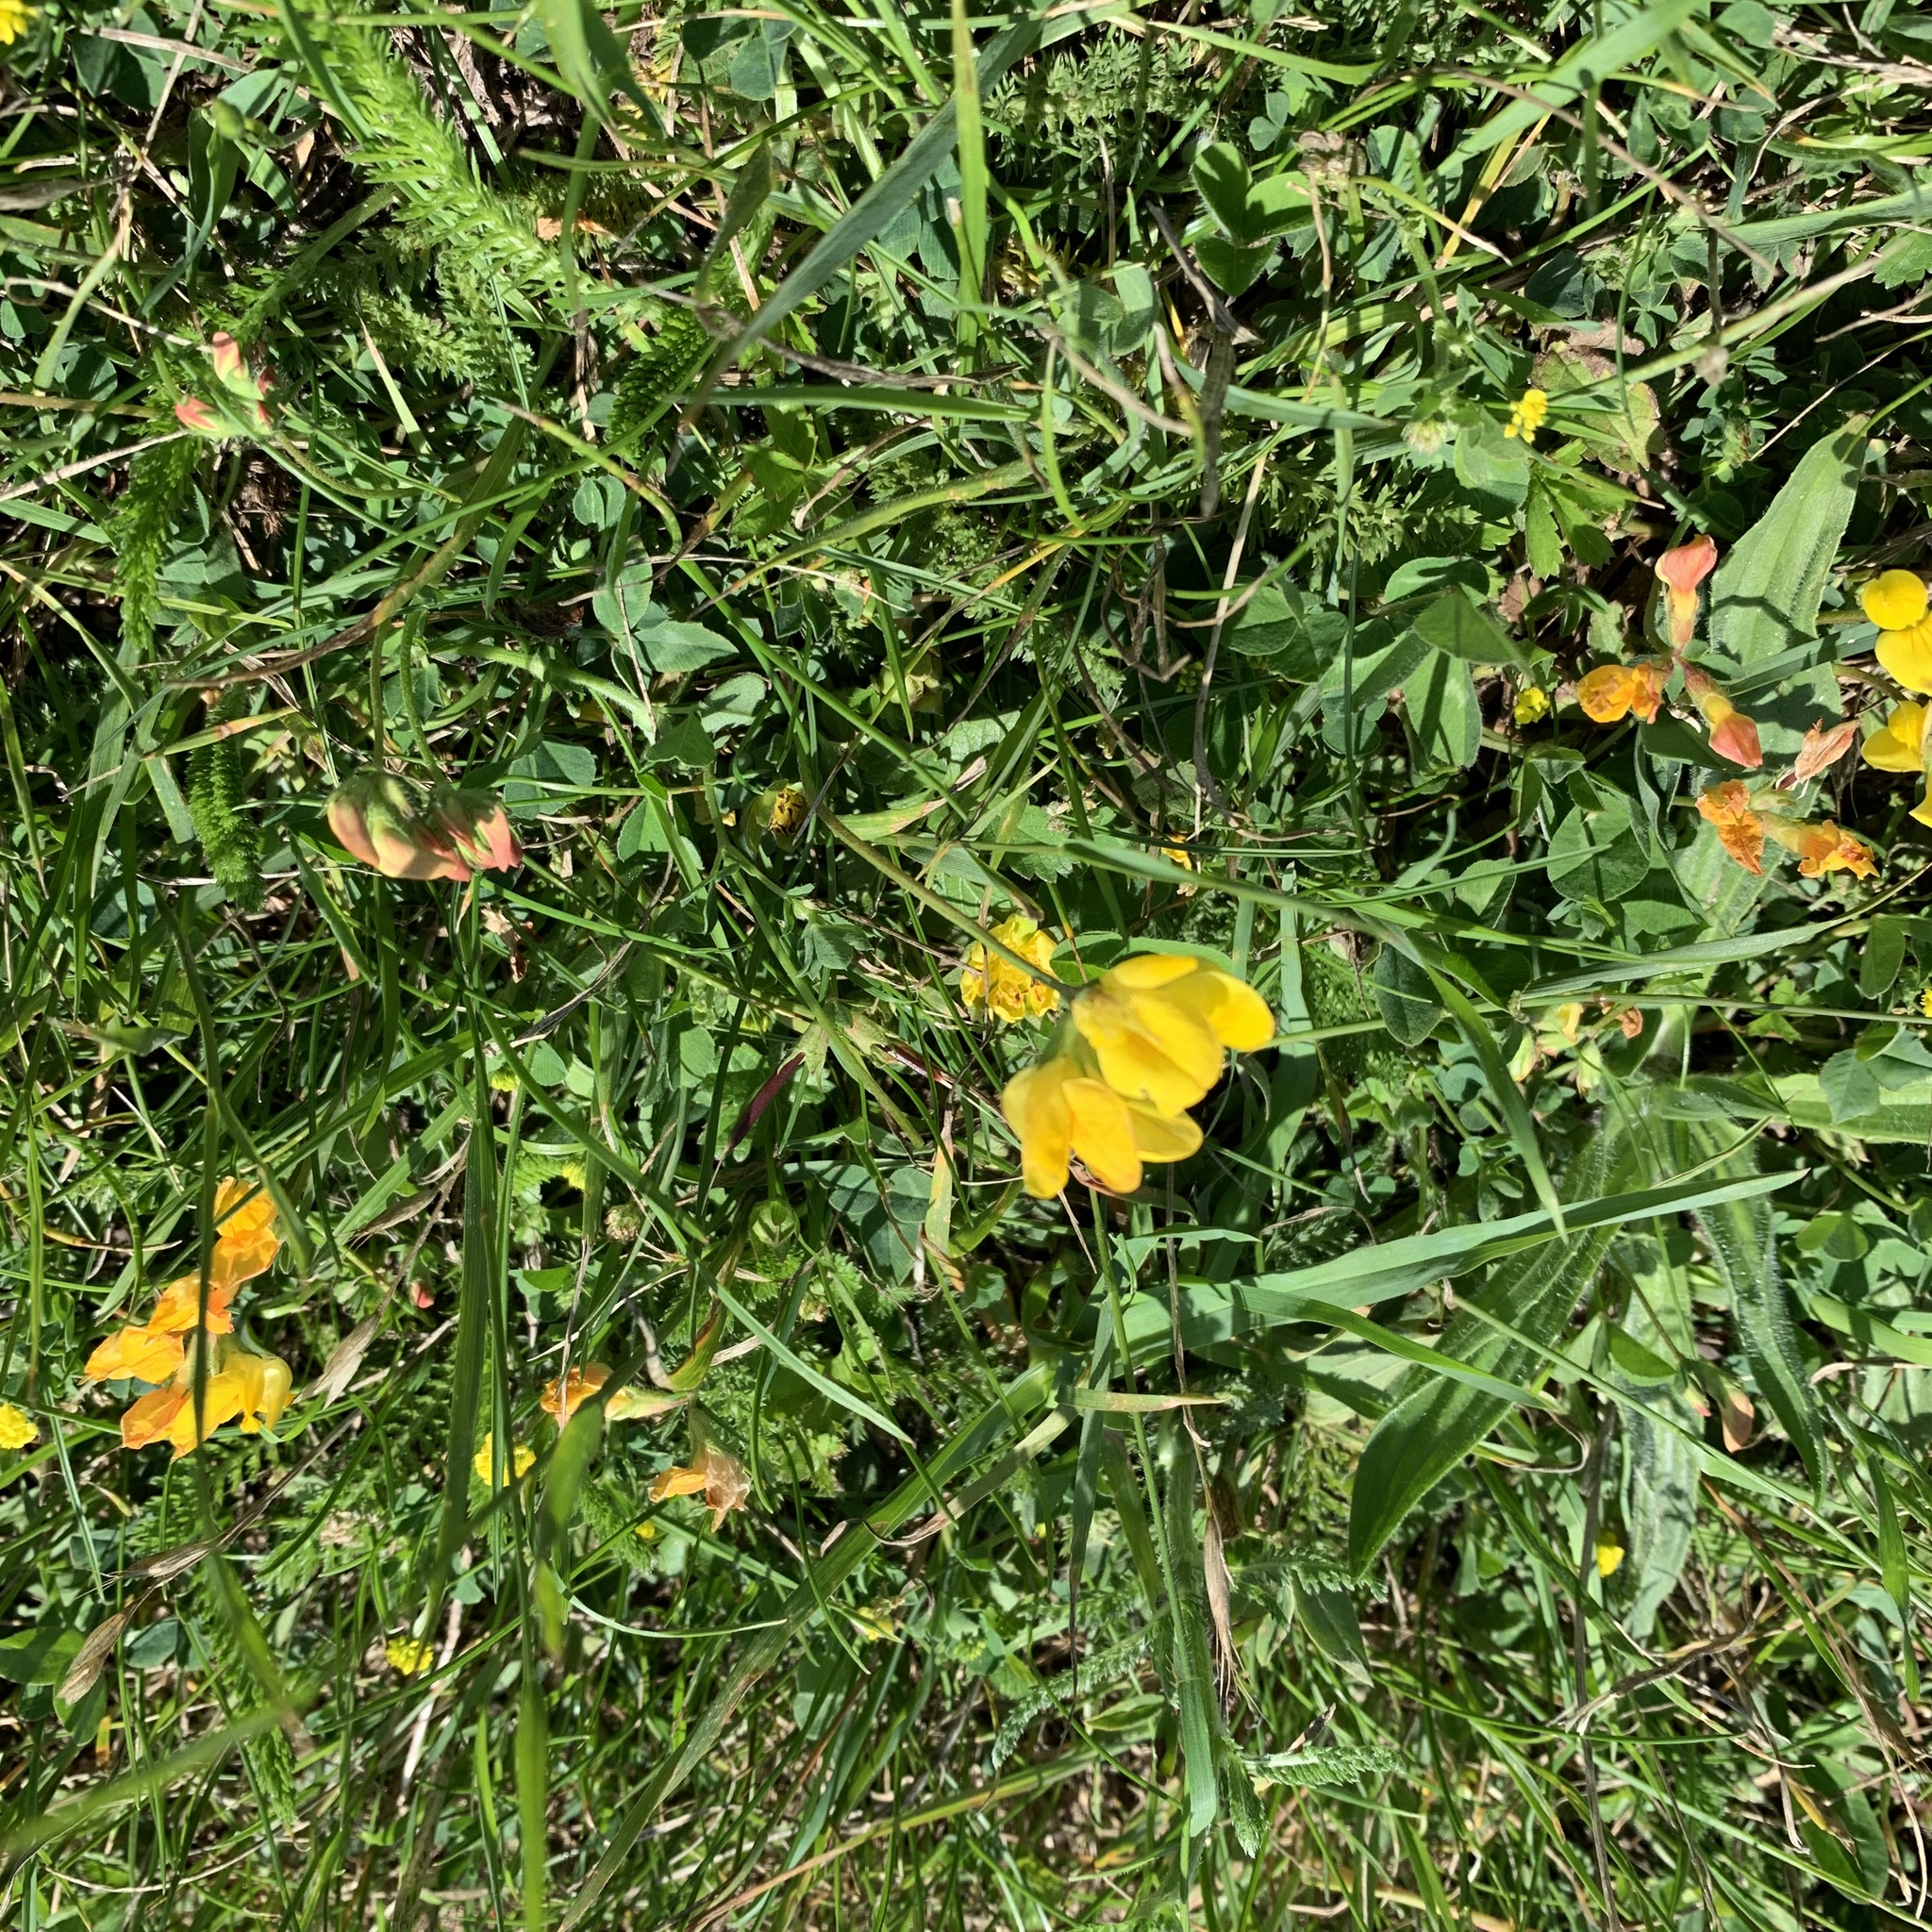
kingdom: Plantae
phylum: Tracheophyta
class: Magnoliopsida
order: Fabales
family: Fabaceae
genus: Lotus
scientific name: Lotus corniculatus
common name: Common bird's-foot-trefoil
